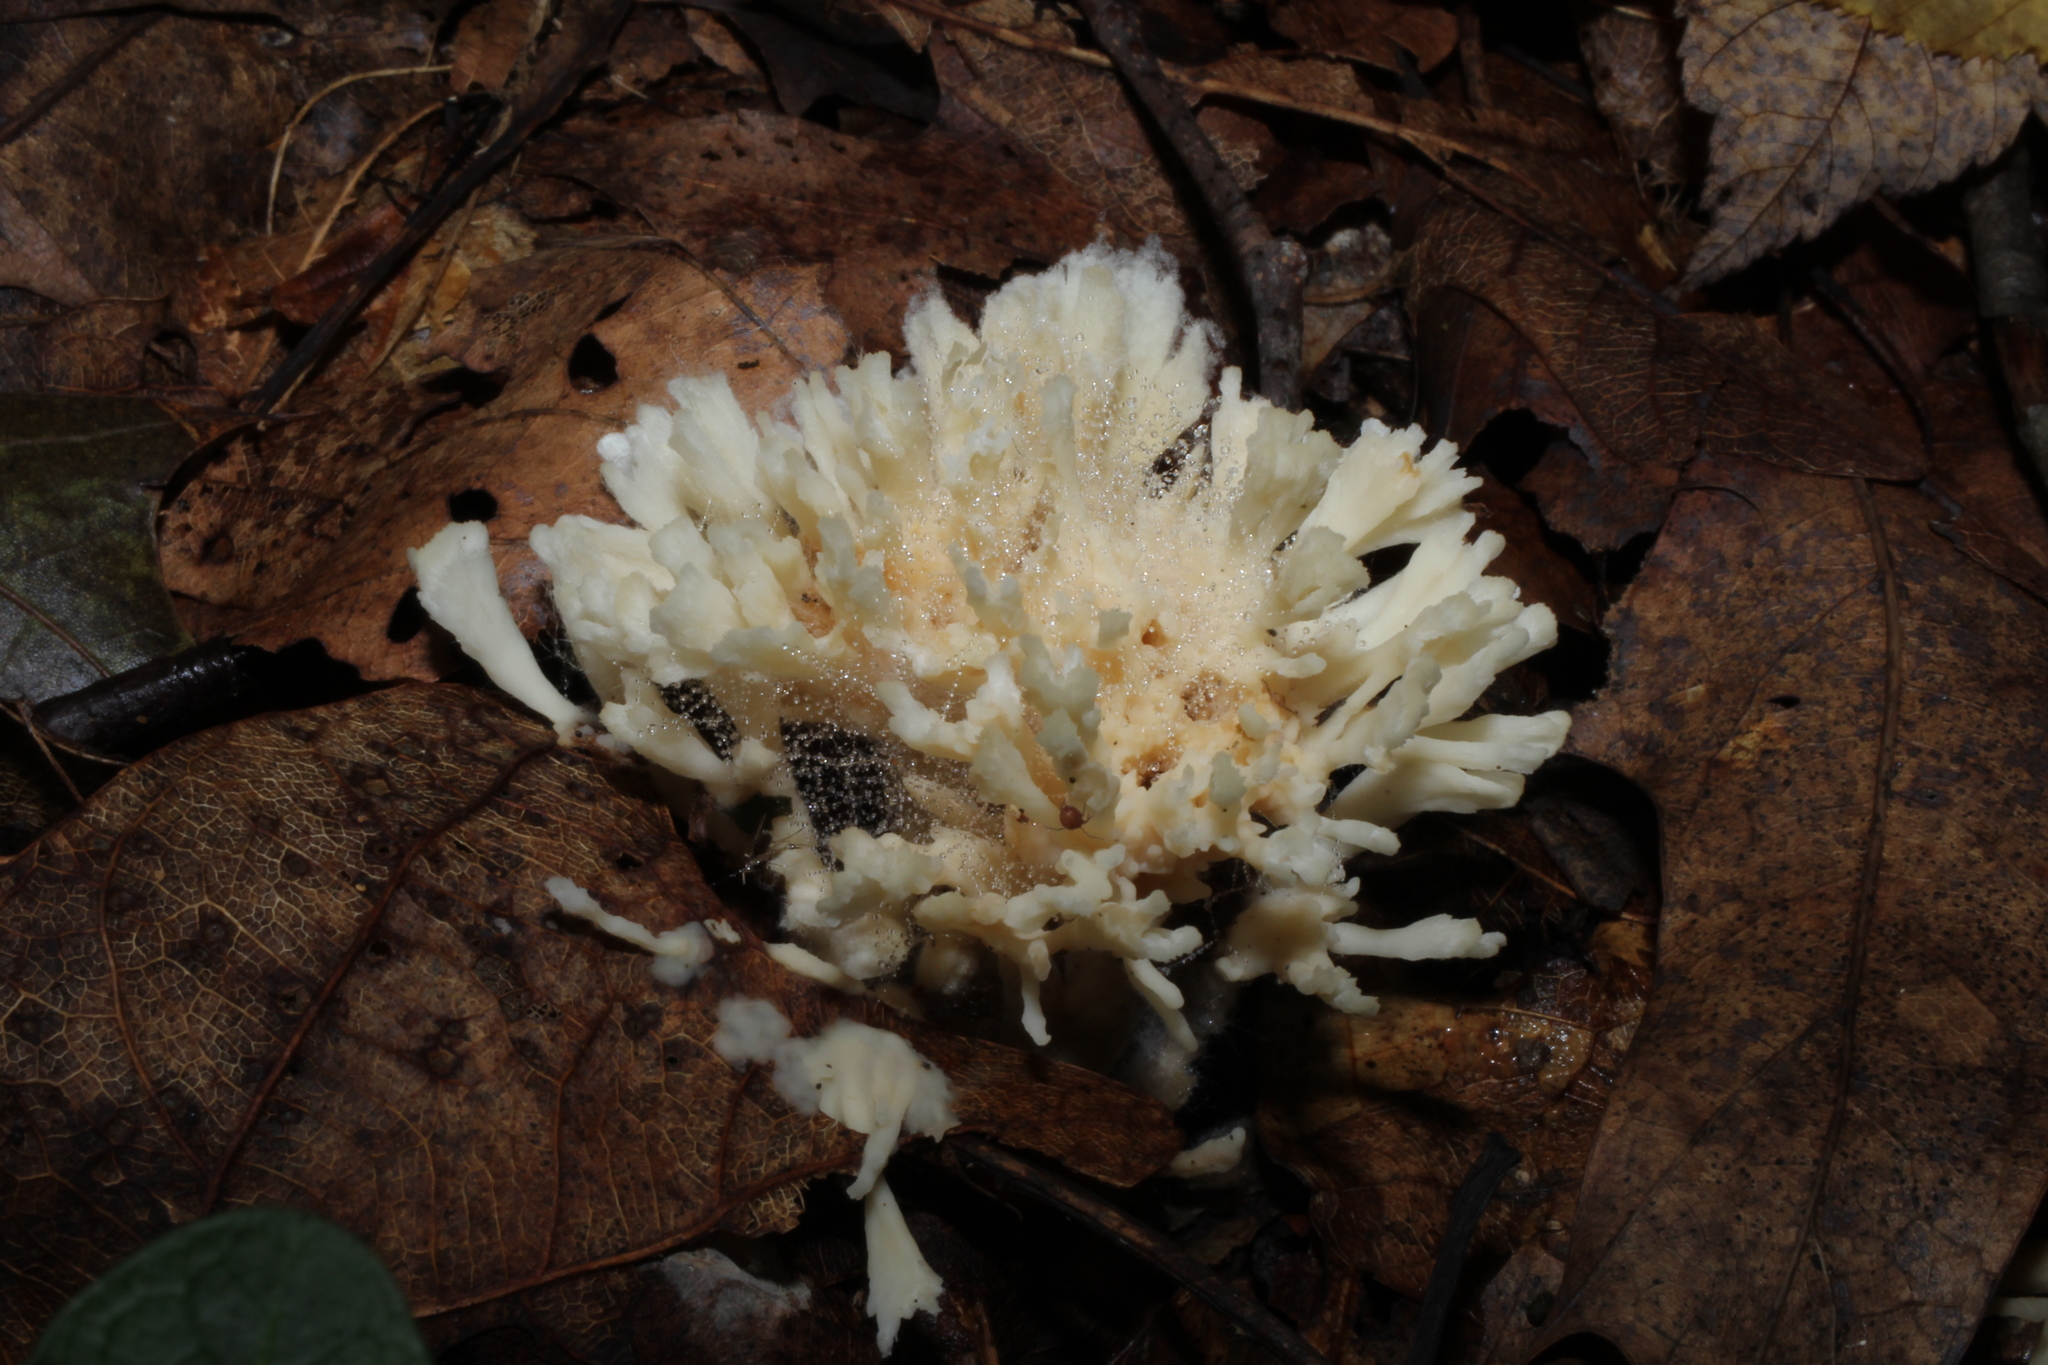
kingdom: Fungi
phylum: Basidiomycota
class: Agaricomycetes
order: Sebacinales
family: Sebacinaceae
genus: Sebacina
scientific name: Sebacina schweinitzii
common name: Jellied false coral fungus
